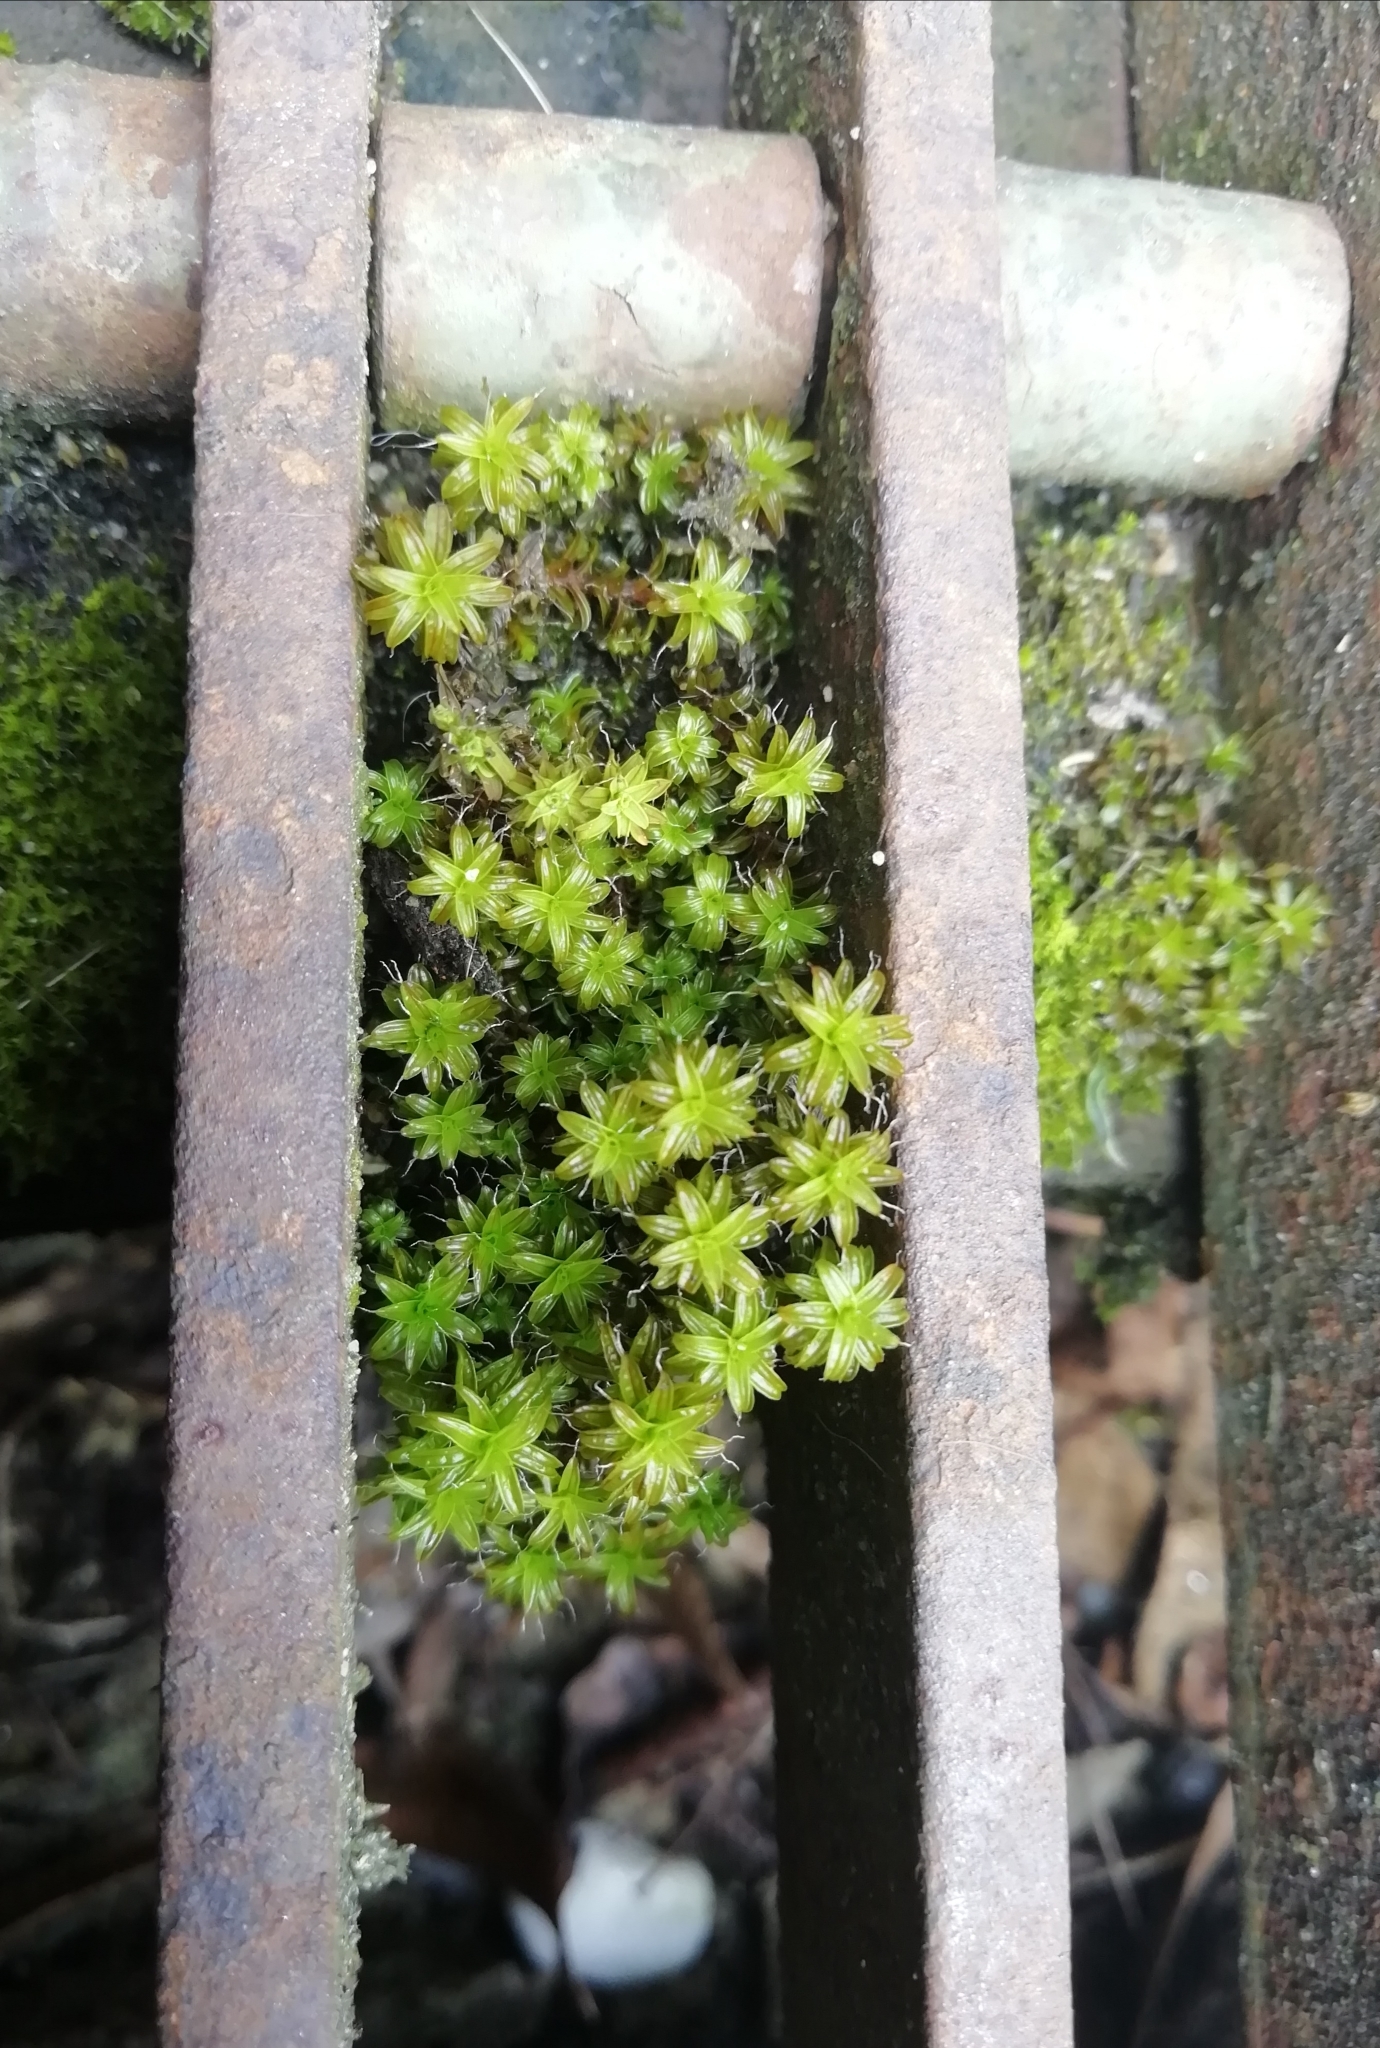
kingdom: Plantae
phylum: Bryophyta
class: Bryopsida
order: Pottiales
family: Pottiaceae
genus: Syntrichia
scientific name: Syntrichia ruralis
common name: Sidewalk screw moss
